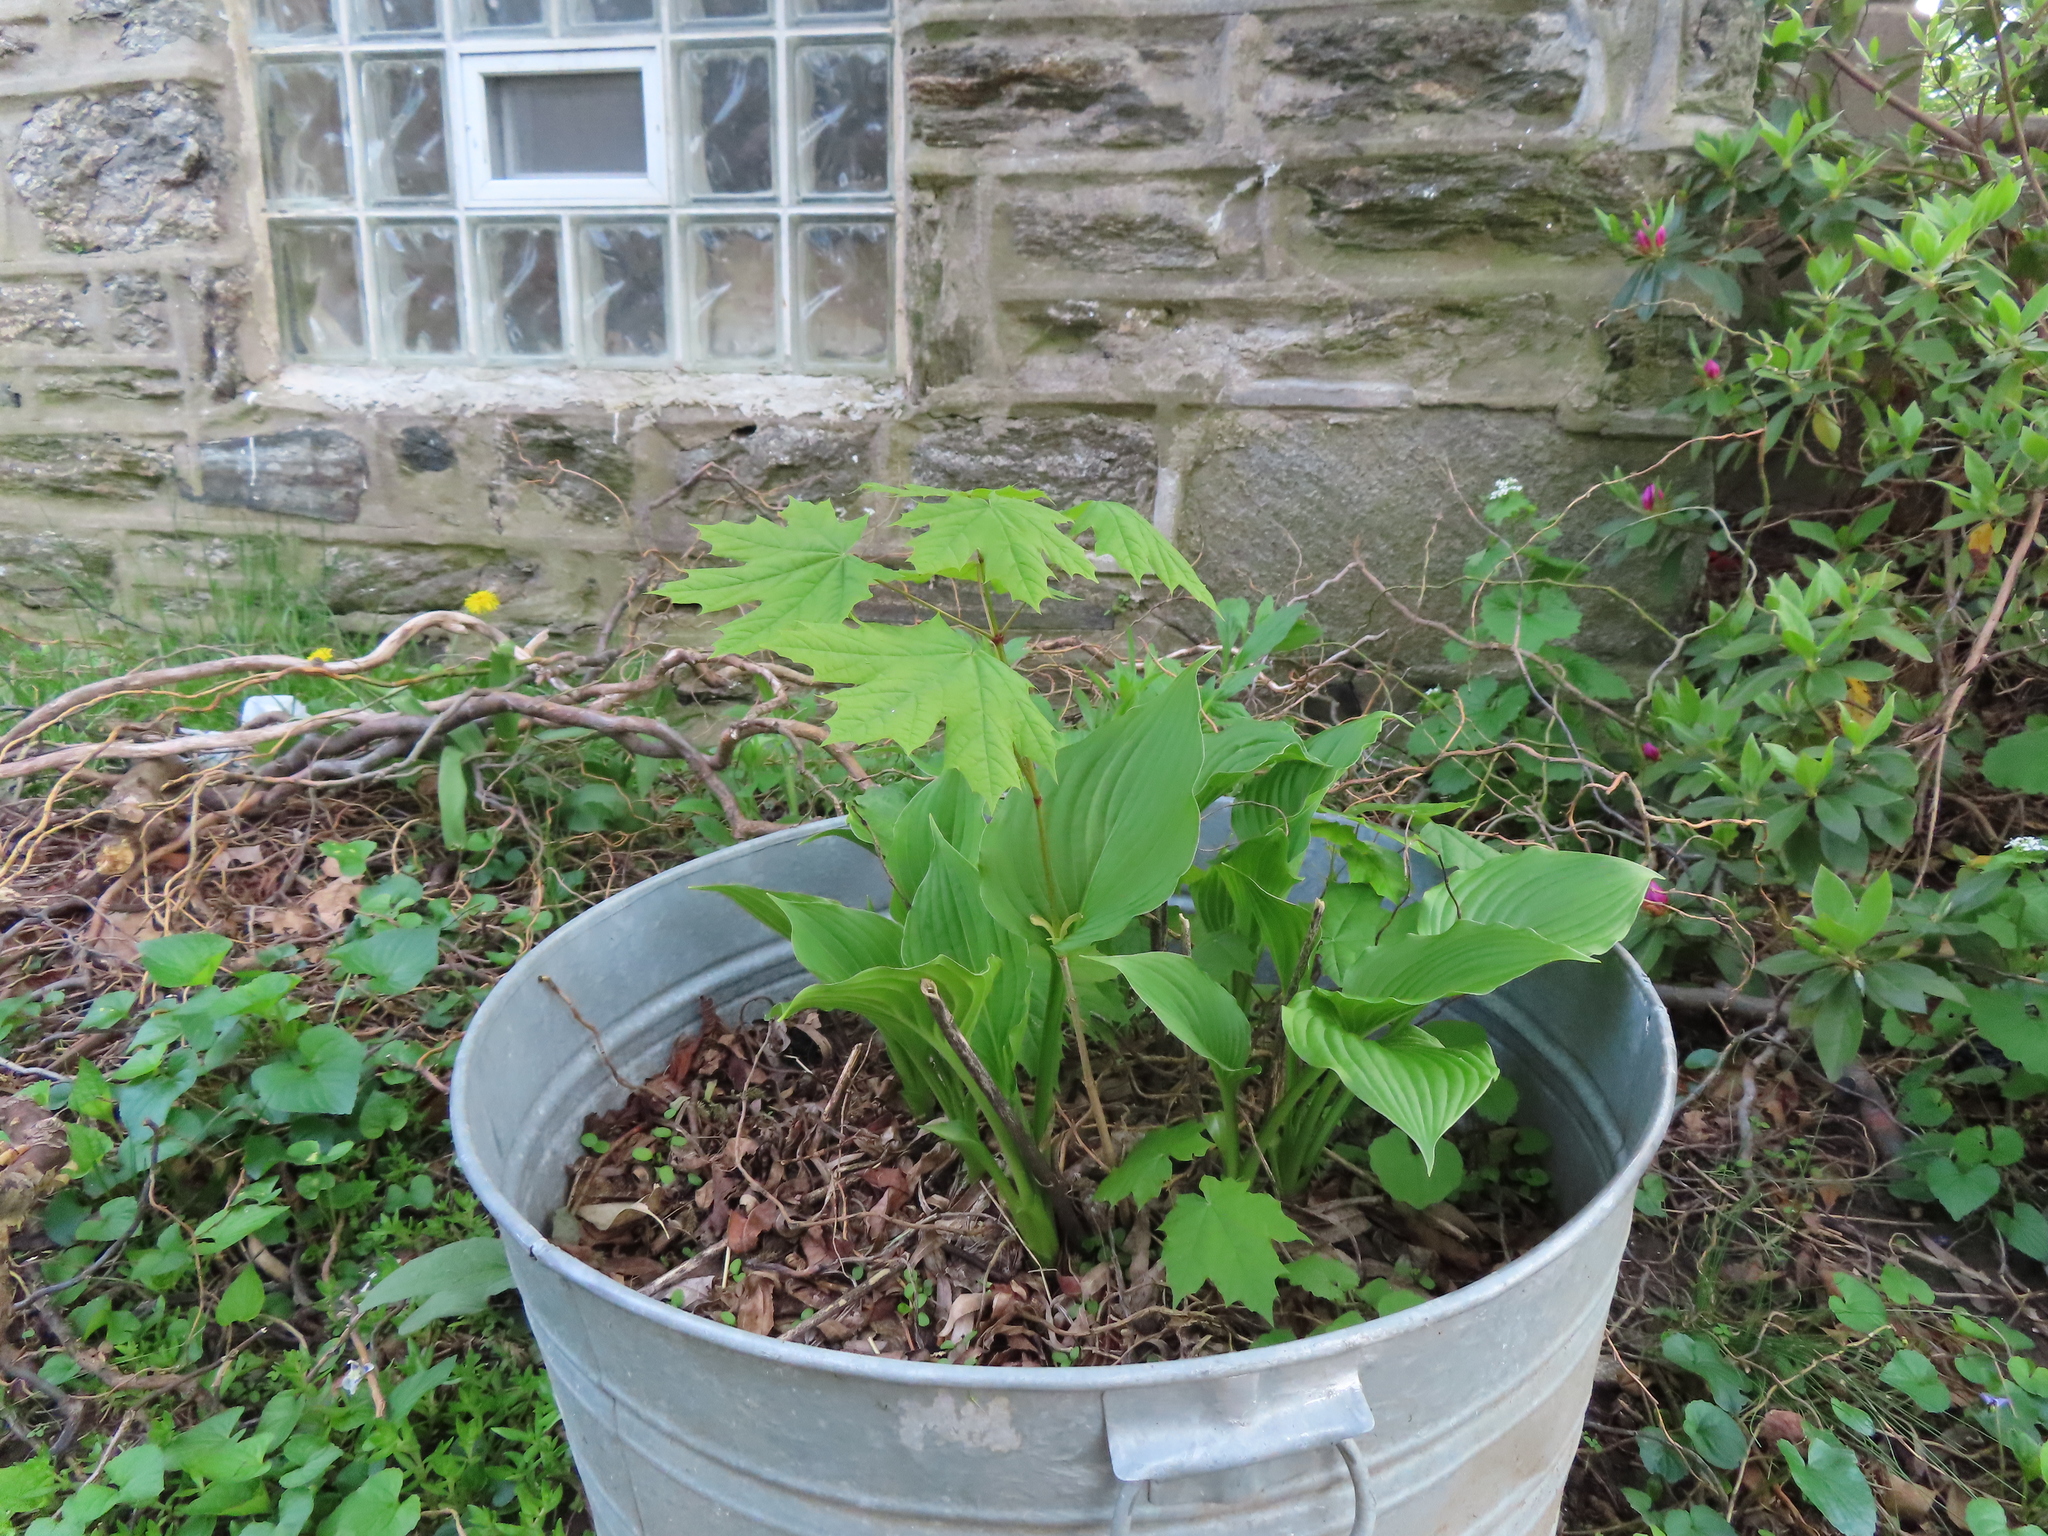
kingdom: Plantae
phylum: Tracheophyta
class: Magnoliopsida
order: Sapindales
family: Sapindaceae
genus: Acer
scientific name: Acer platanoides
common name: Norway maple
